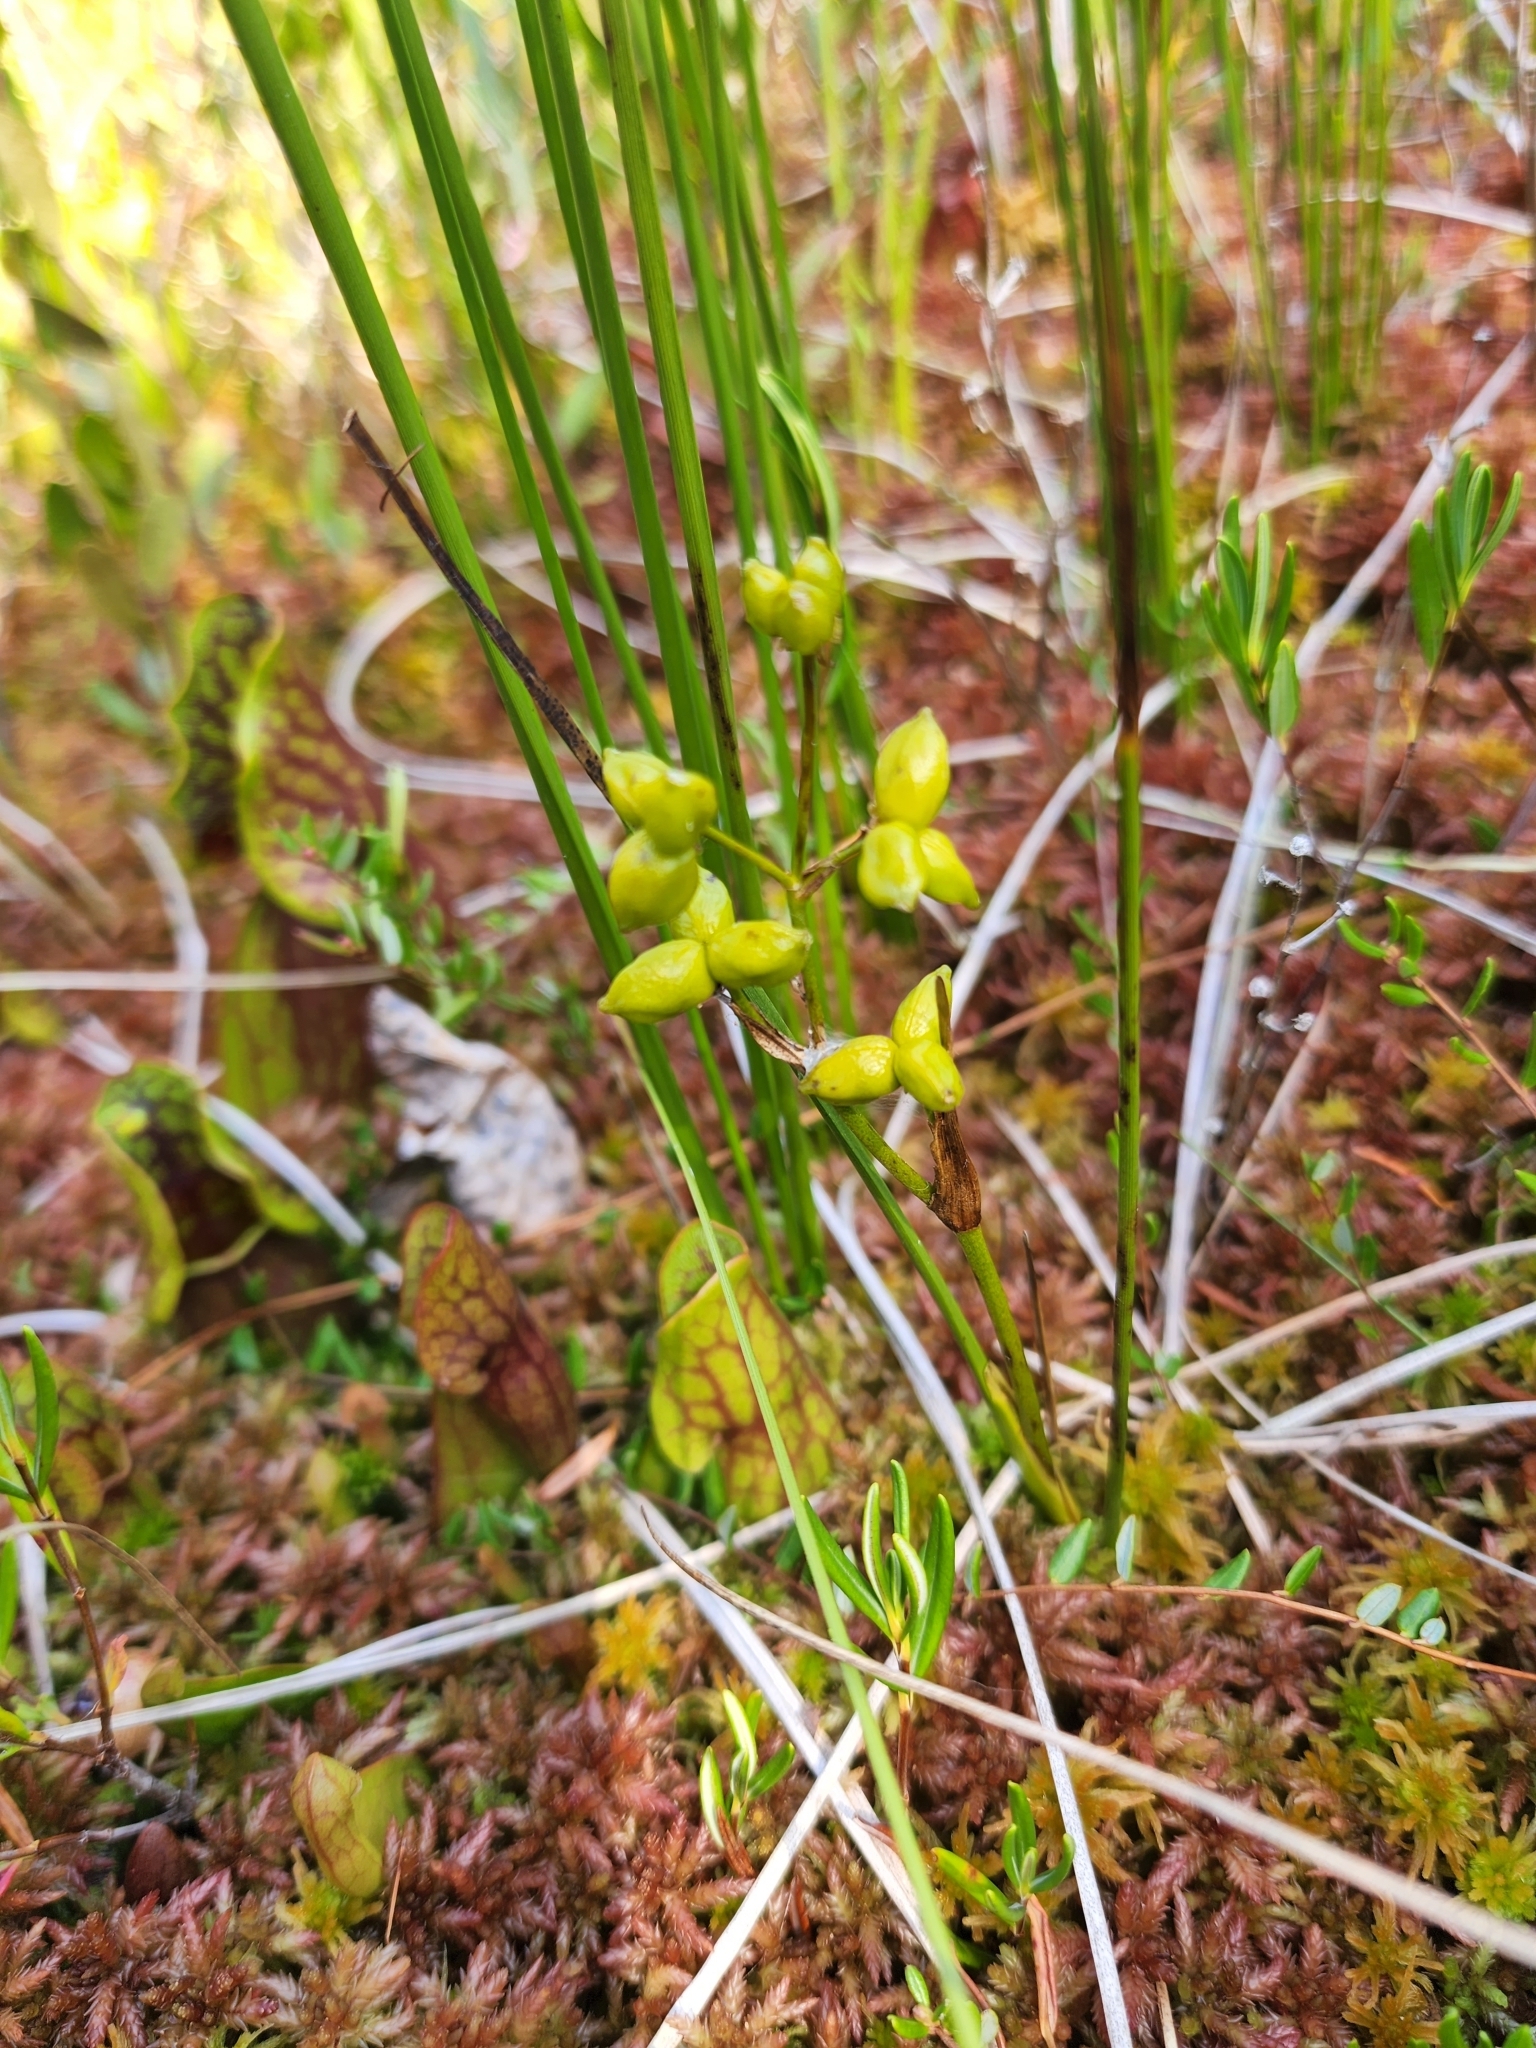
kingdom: Plantae
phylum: Tracheophyta
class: Liliopsida
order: Alismatales
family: Scheuchzeriaceae
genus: Scheuchzeria
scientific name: Scheuchzeria palustris
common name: Rannoch-rush
